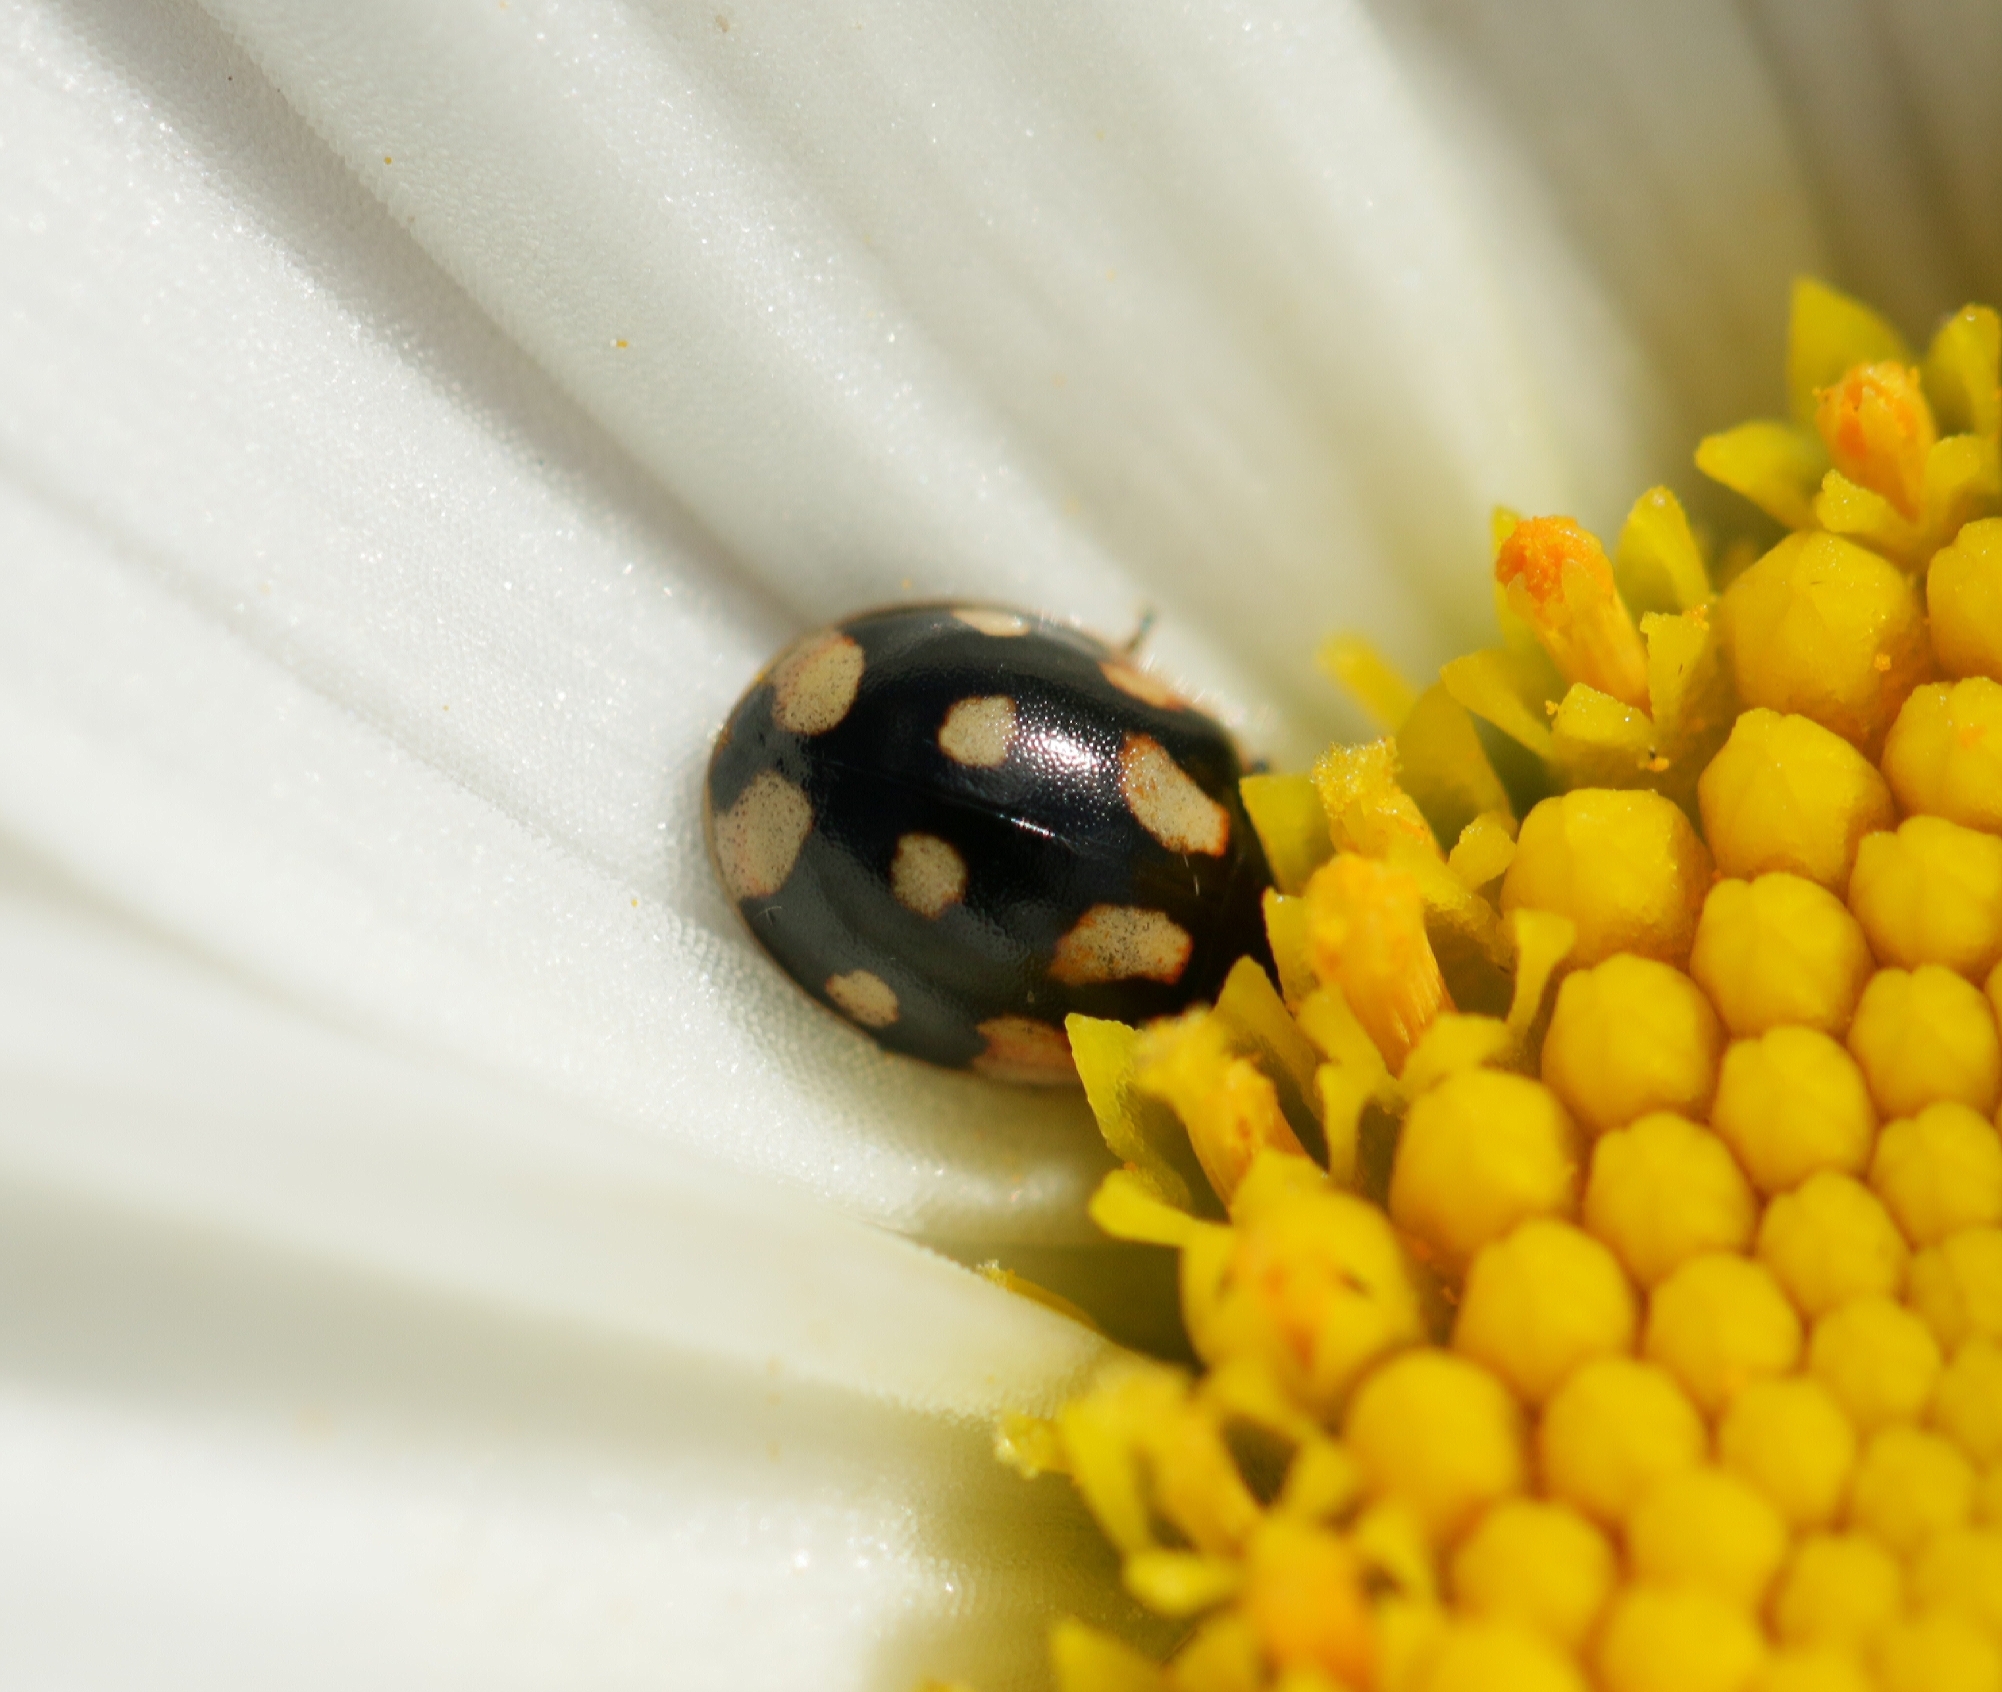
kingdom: Animalia
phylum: Arthropoda
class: Insecta
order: Coleoptera
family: Coccinellidae
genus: Adalia
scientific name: Adalia decempunctata
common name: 10-spot ladybird
